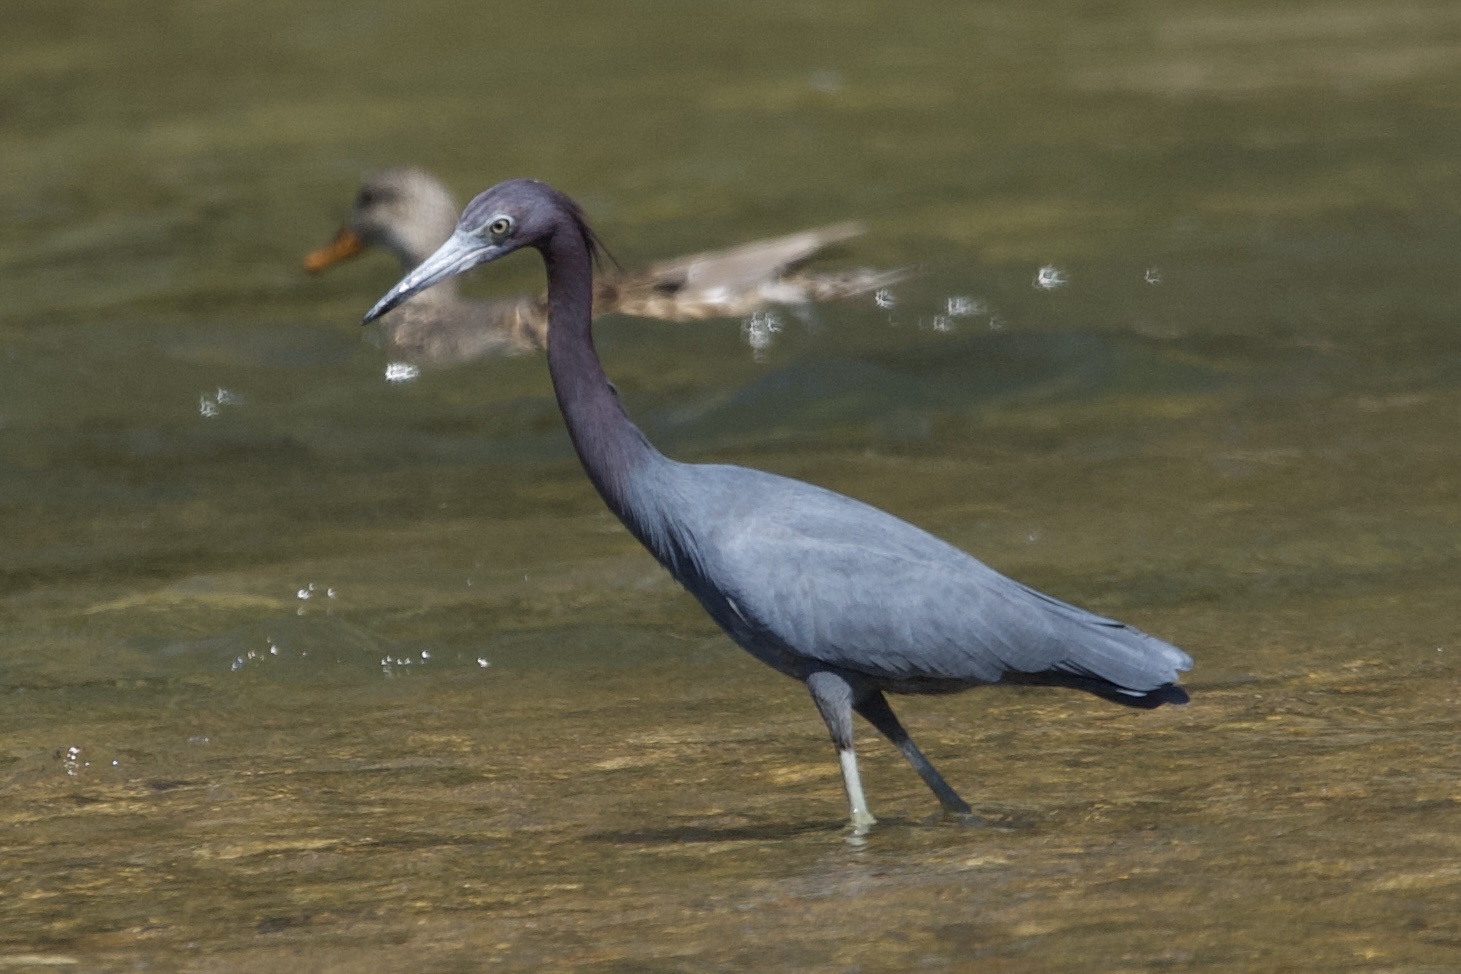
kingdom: Animalia
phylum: Chordata
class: Aves
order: Pelecaniformes
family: Ardeidae
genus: Egretta
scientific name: Egretta caerulea
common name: Little blue heron
